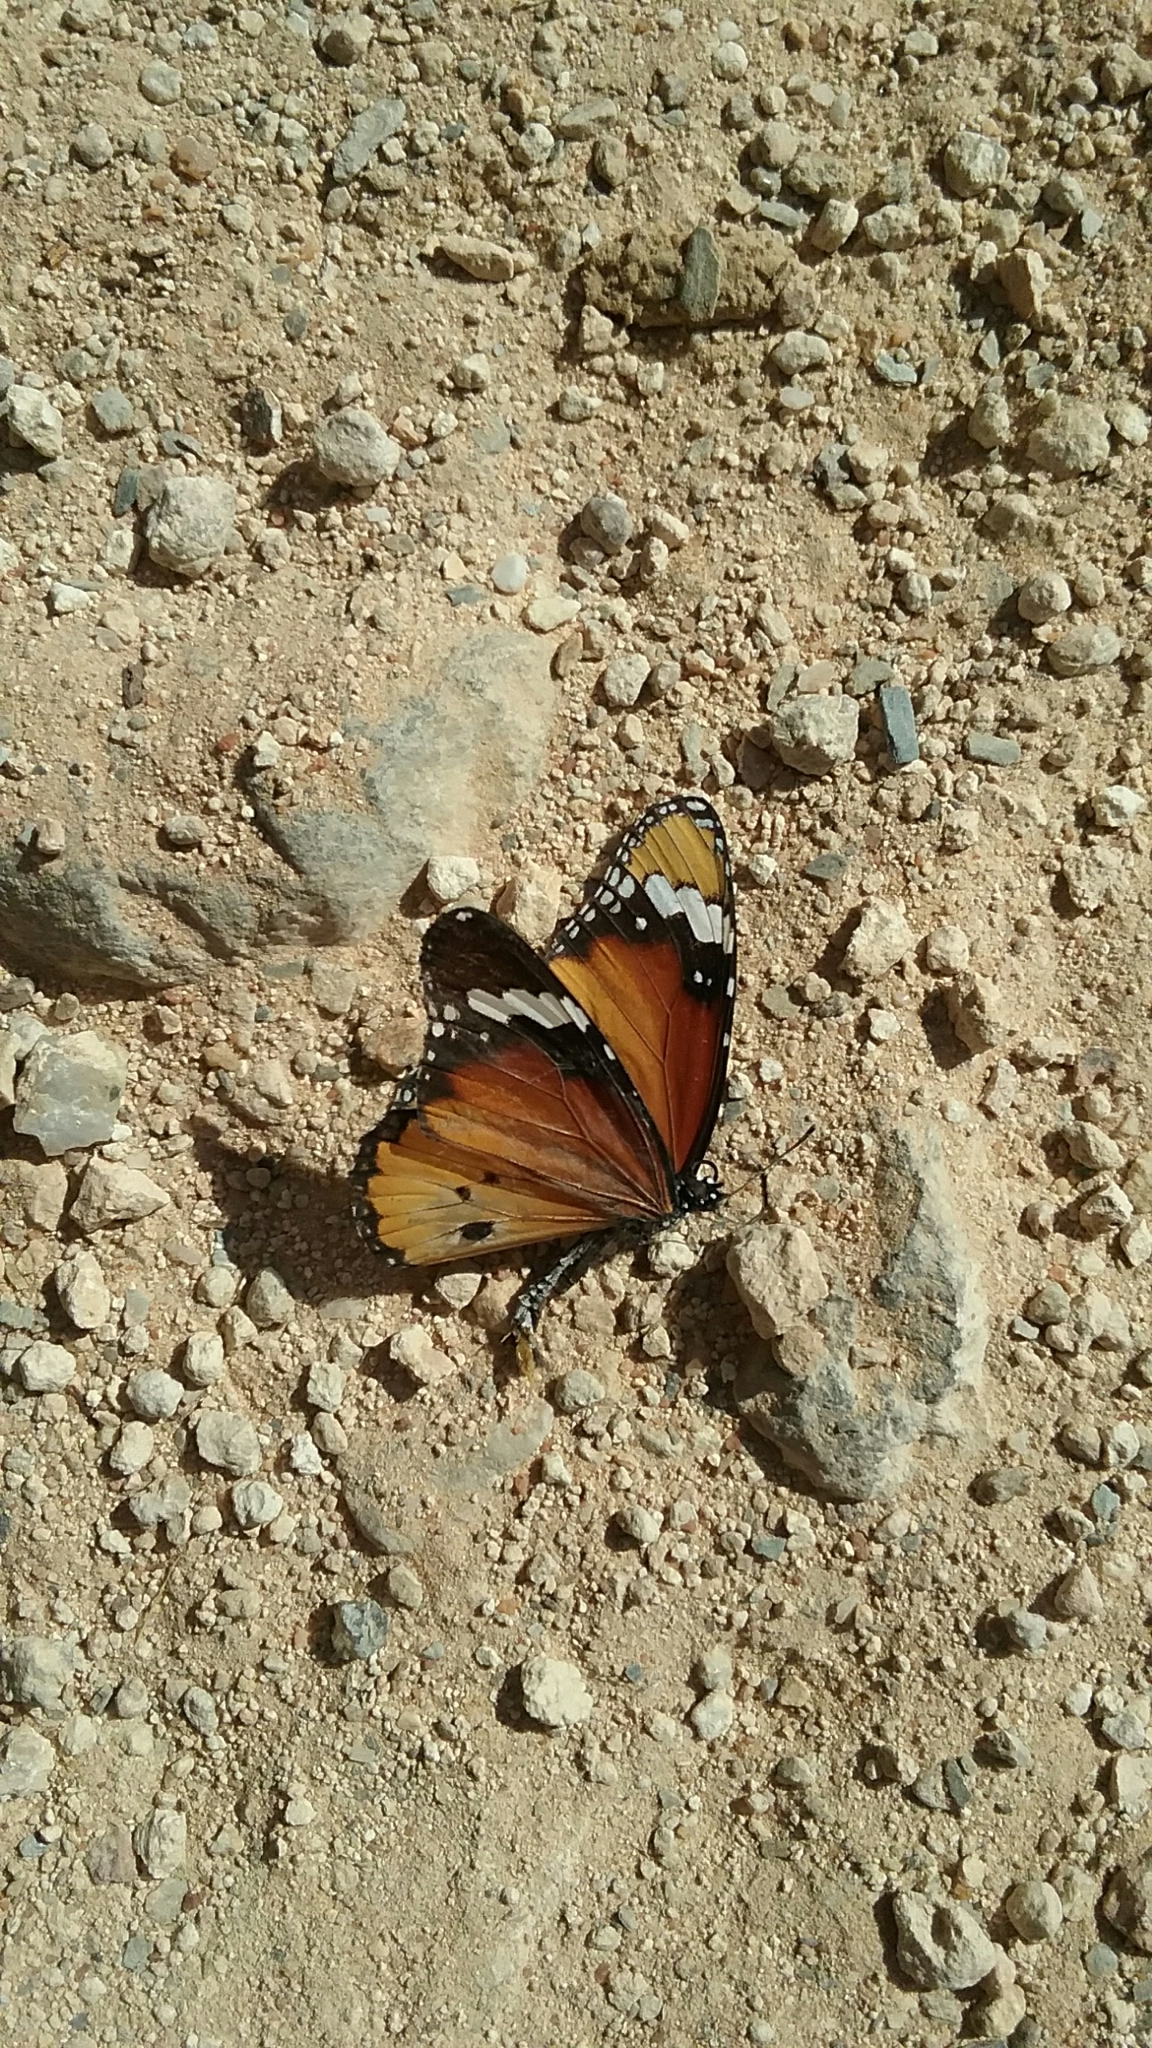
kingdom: Animalia
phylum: Arthropoda
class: Insecta
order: Lepidoptera
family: Nymphalidae
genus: Danaus
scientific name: Danaus chrysippus
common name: Plain tiger
